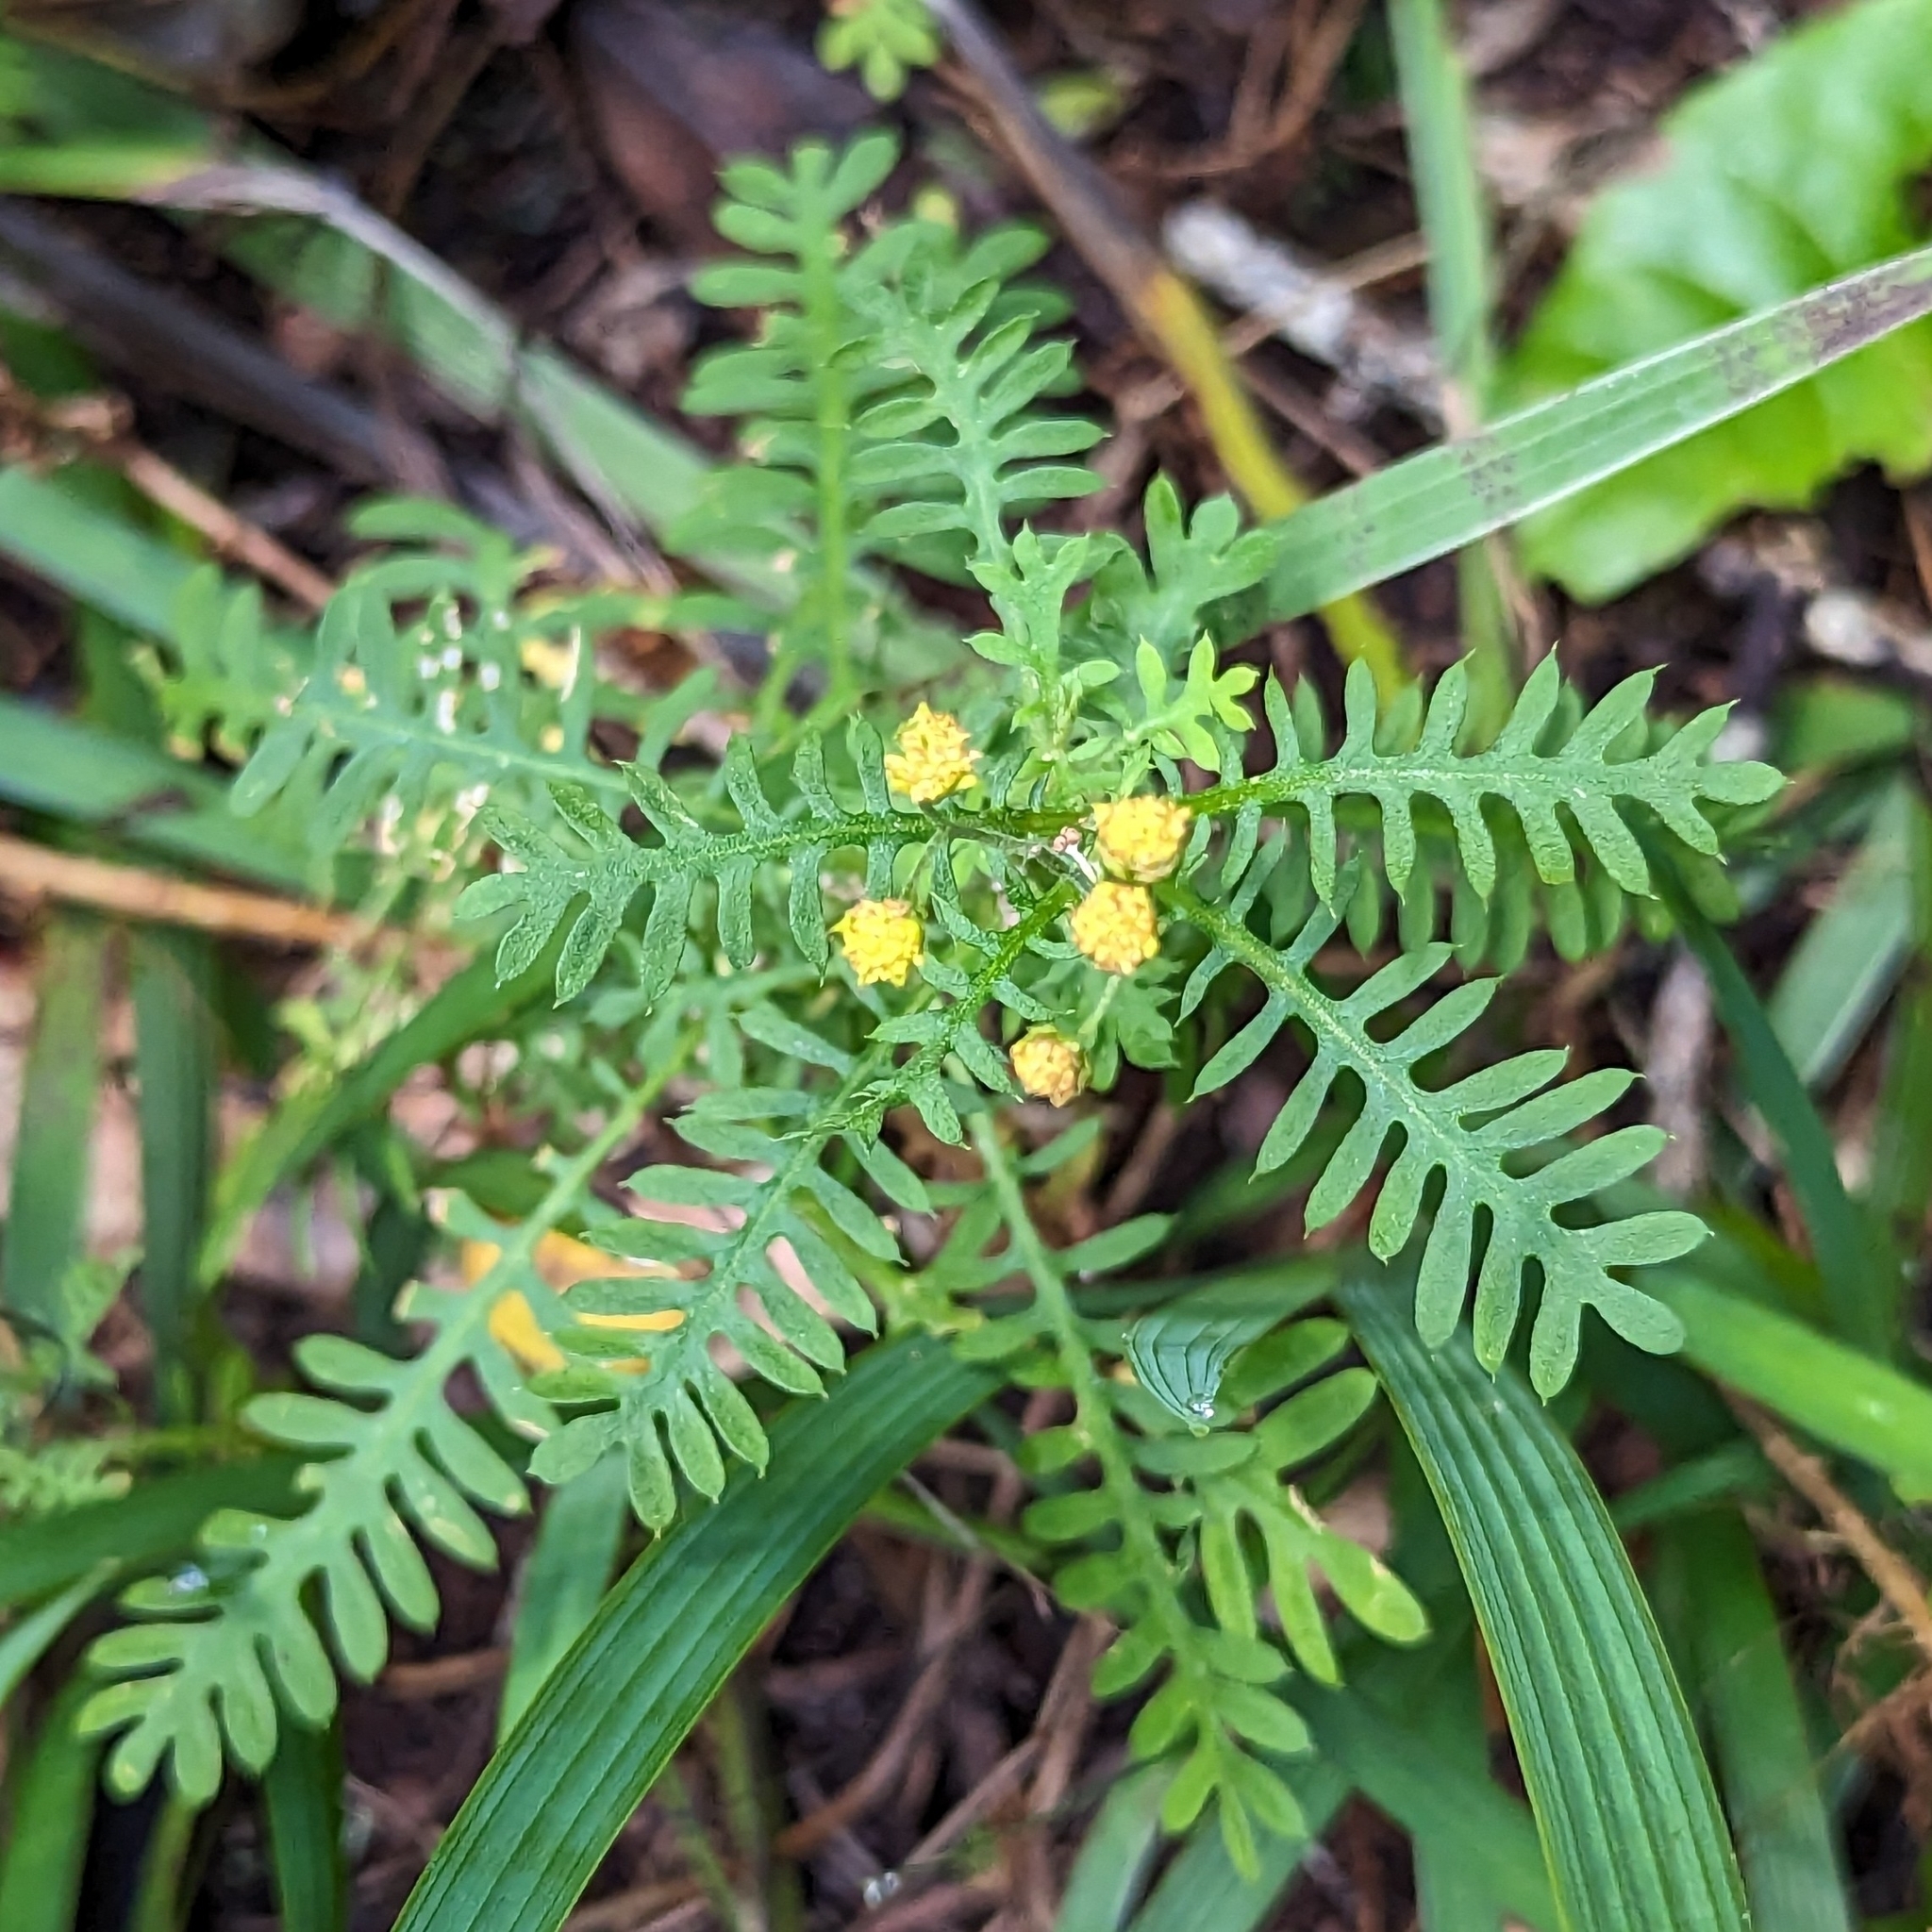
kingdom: Plantae
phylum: Tracheophyta
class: Magnoliopsida
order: Asterales
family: Asteraceae
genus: Hippia
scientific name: Hippia frutescens
